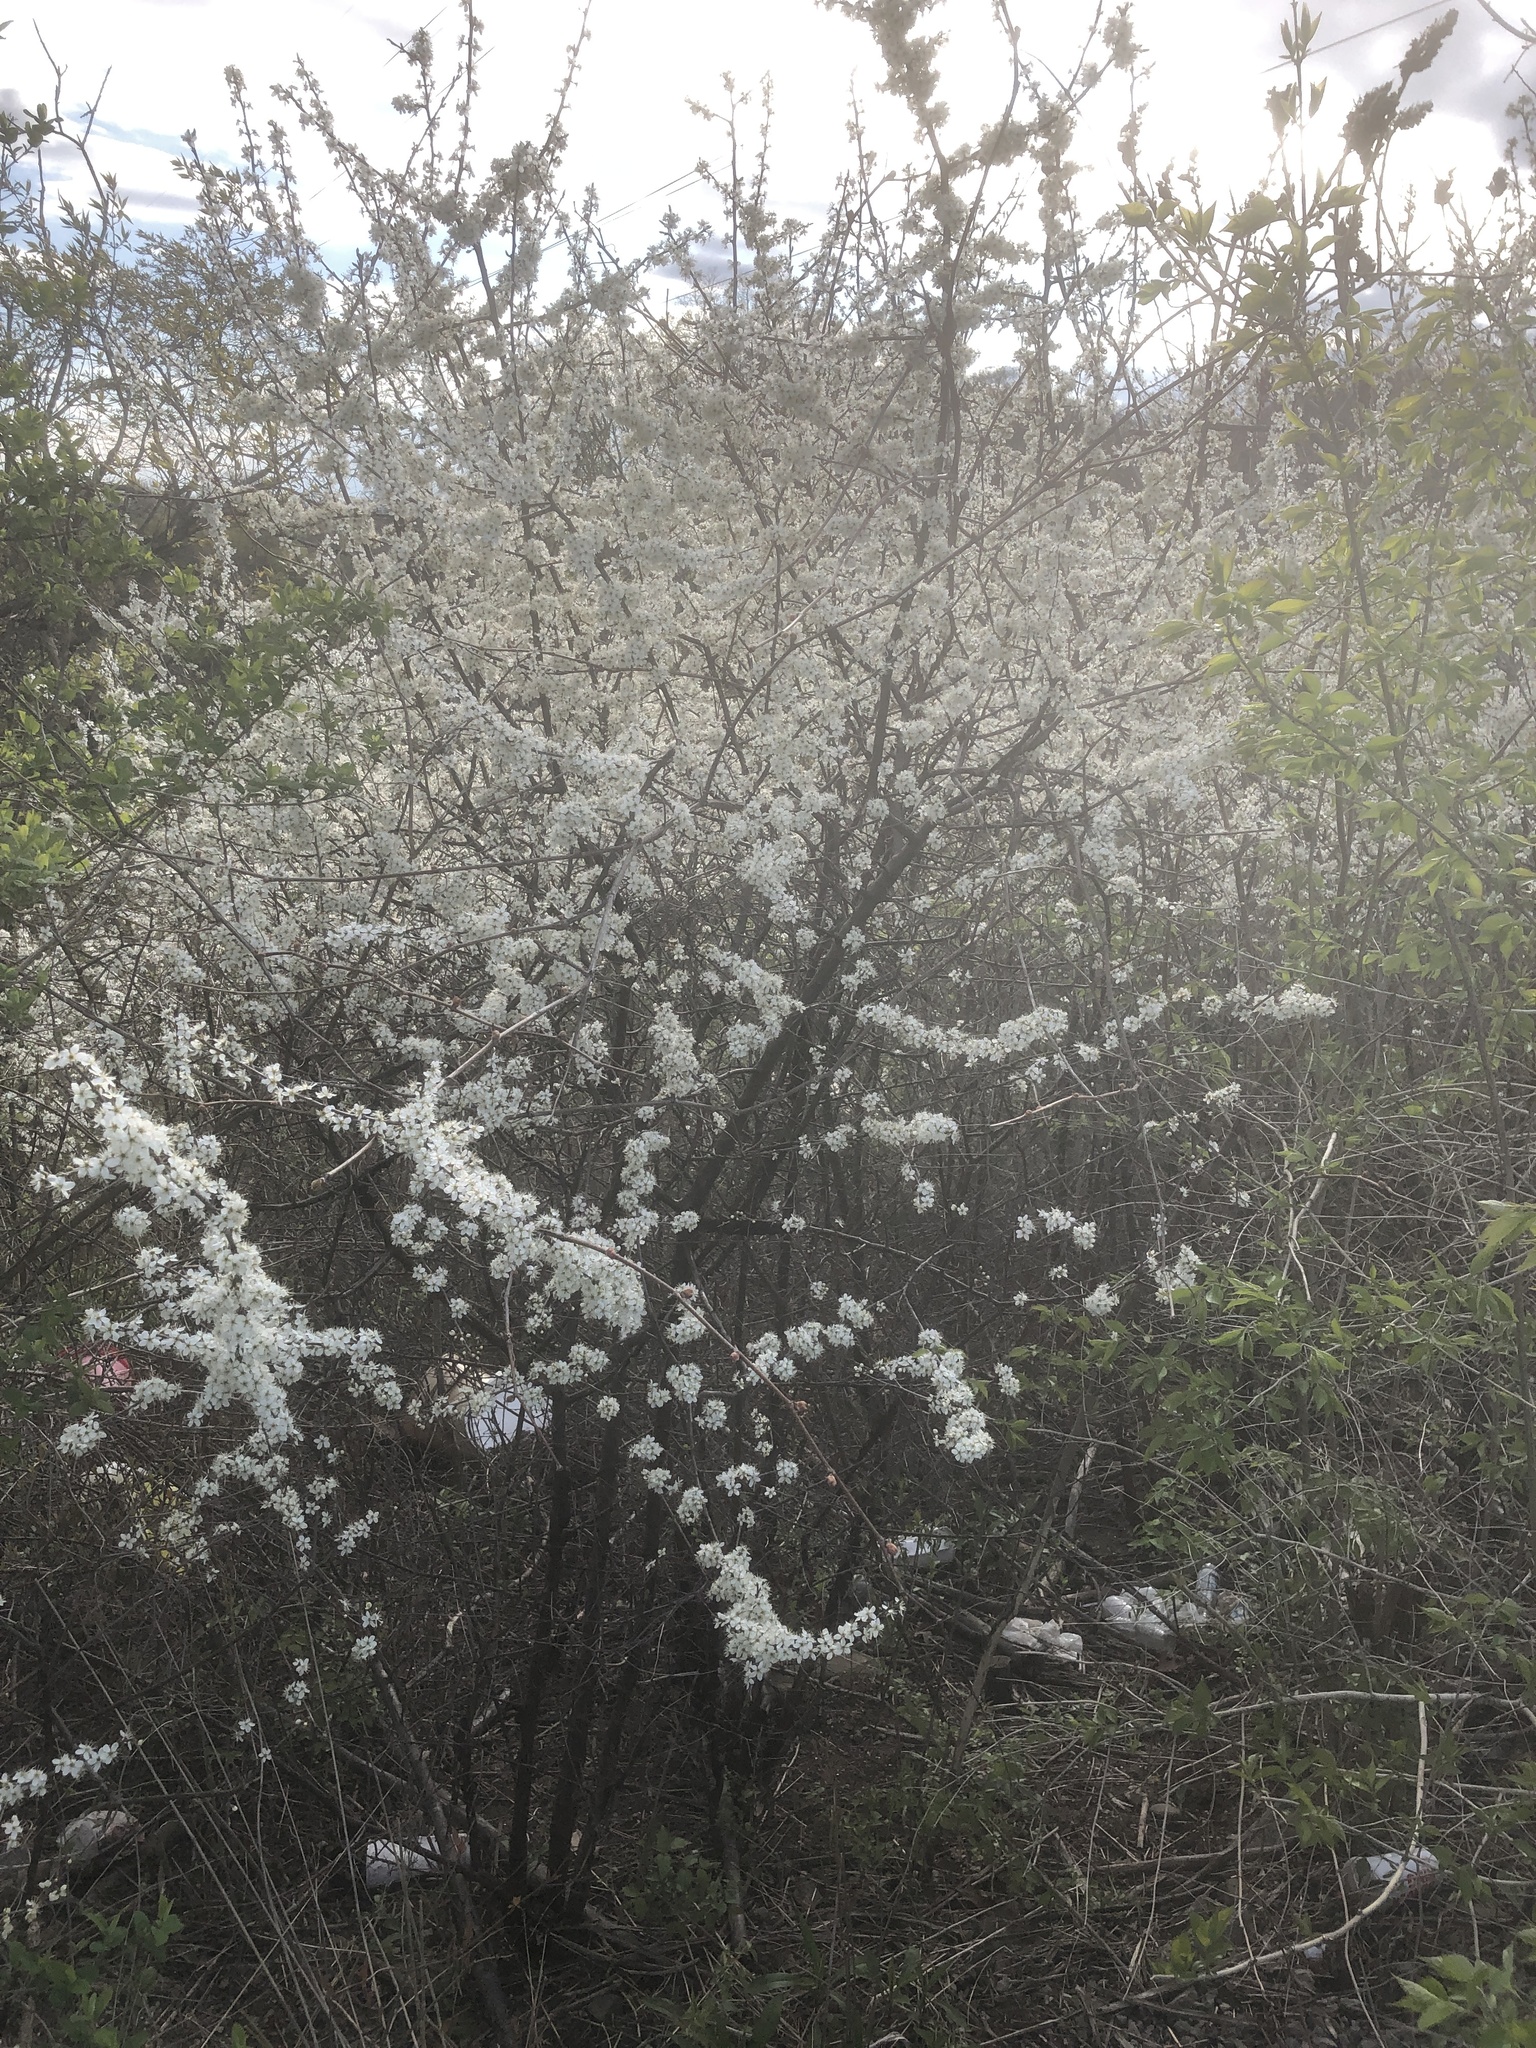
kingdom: Plantae
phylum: Tracheophyta
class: Magnoliopsida
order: Rosales
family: Rosaceae
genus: Prunus
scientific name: Prunus americana
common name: American plum
